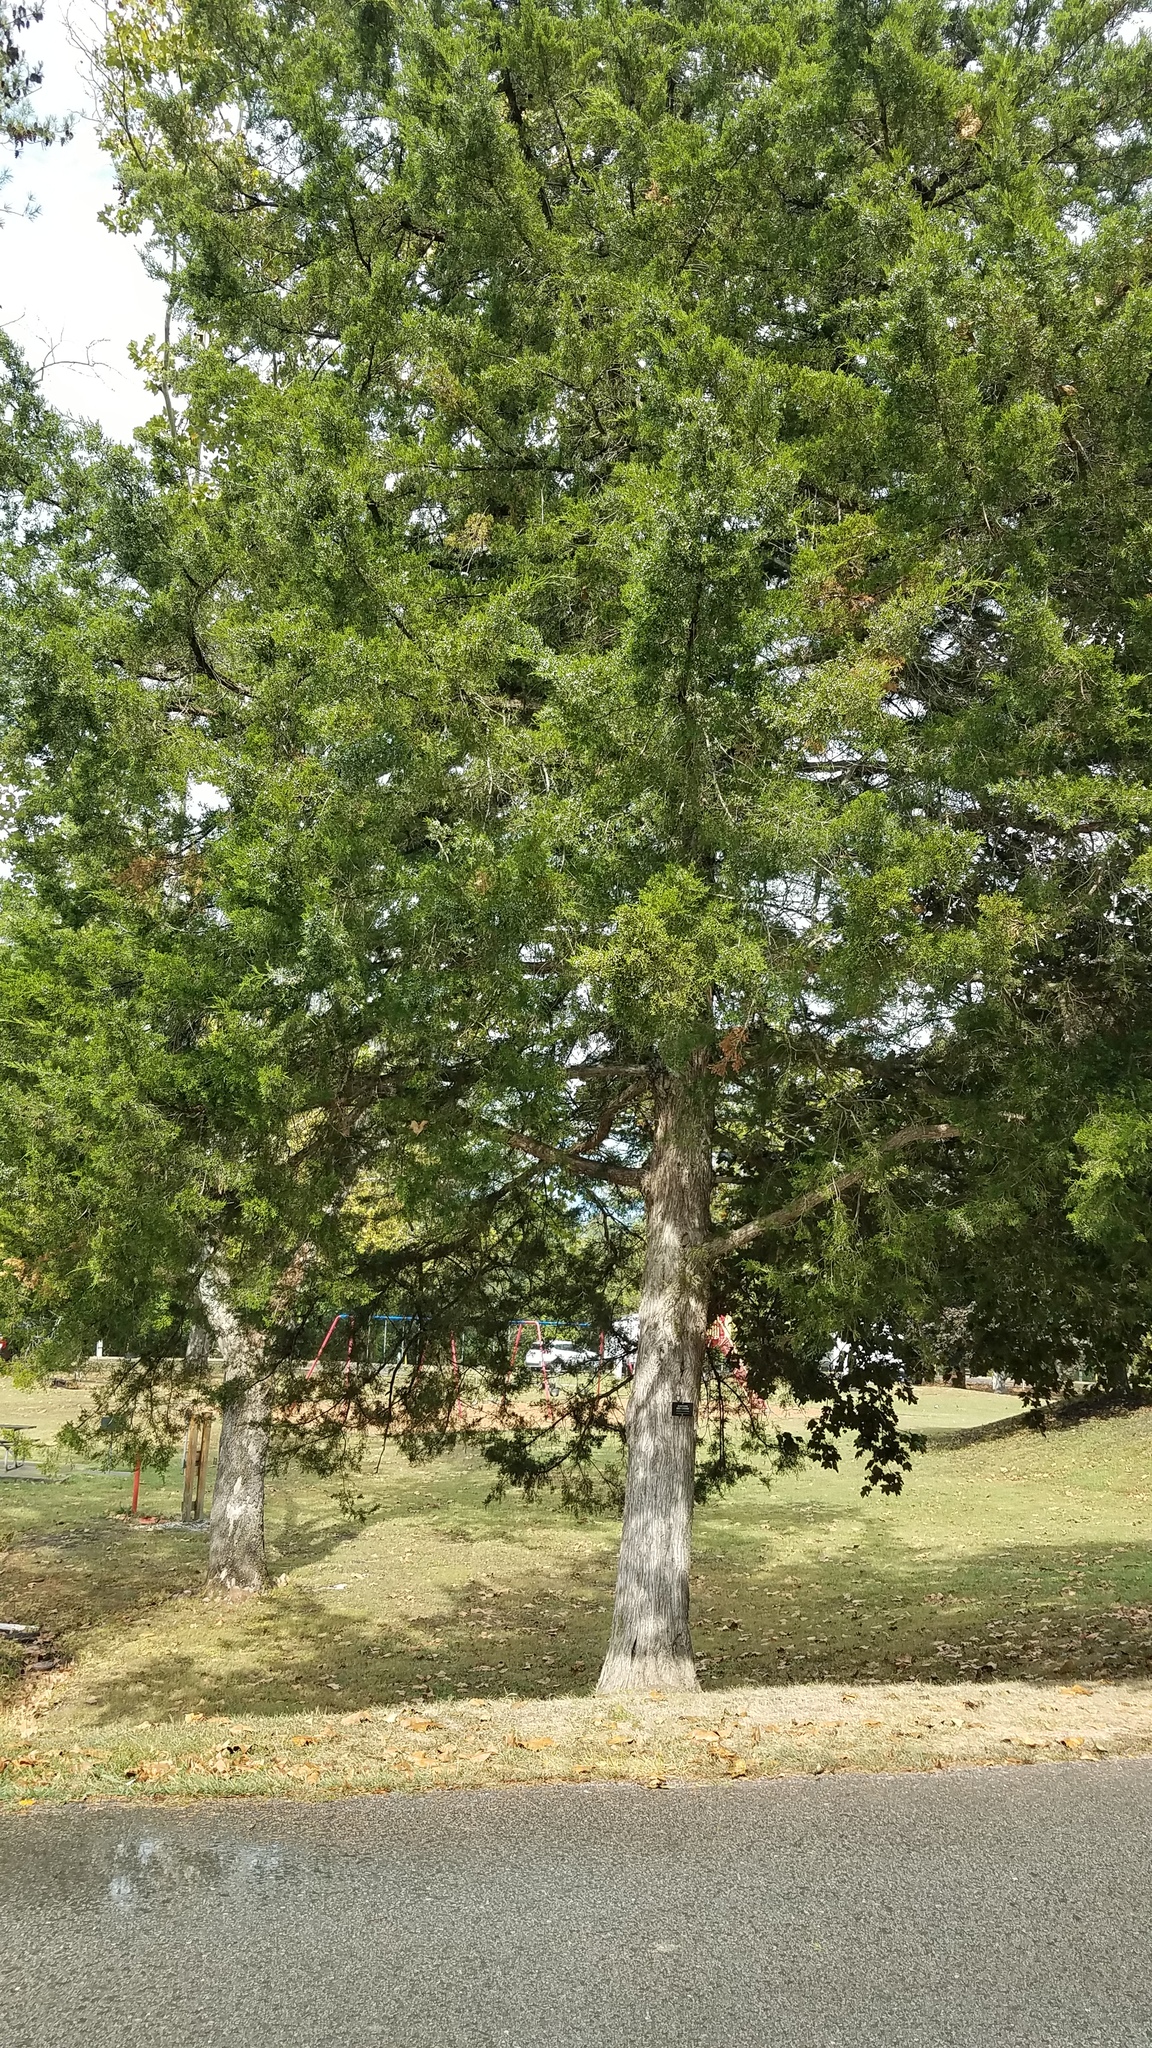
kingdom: Plantae
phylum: Tracheophyta
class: Pinopsida
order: Pinales
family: Cupressaceae
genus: Juniperus
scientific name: Juniperus virginiana
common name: Red juniper
